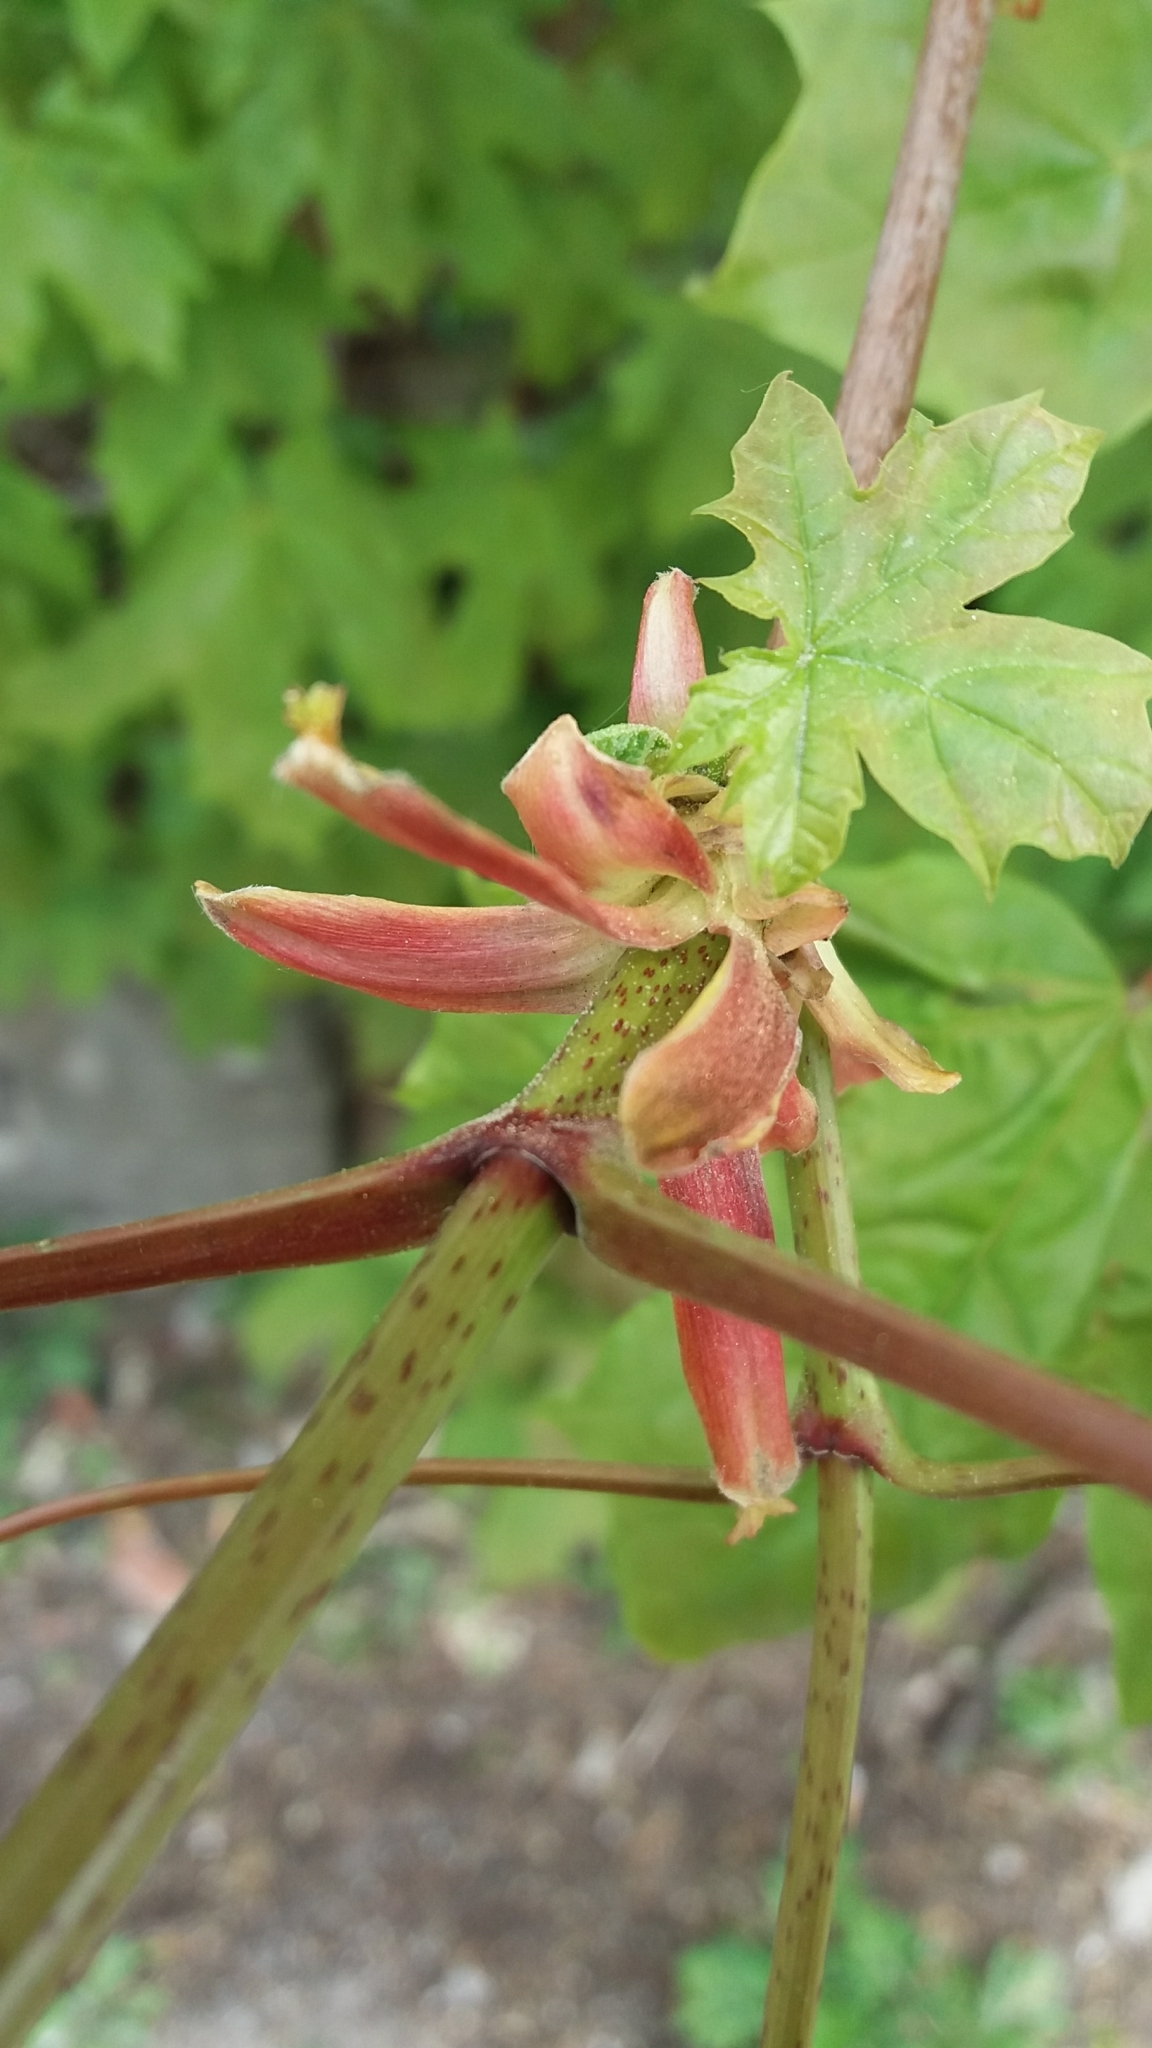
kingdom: Plantae
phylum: Tracheophyta
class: Magnoliopsida
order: Sapindales
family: Sapindaceae
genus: Acer
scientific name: Acer platanoides
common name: Norway maple
